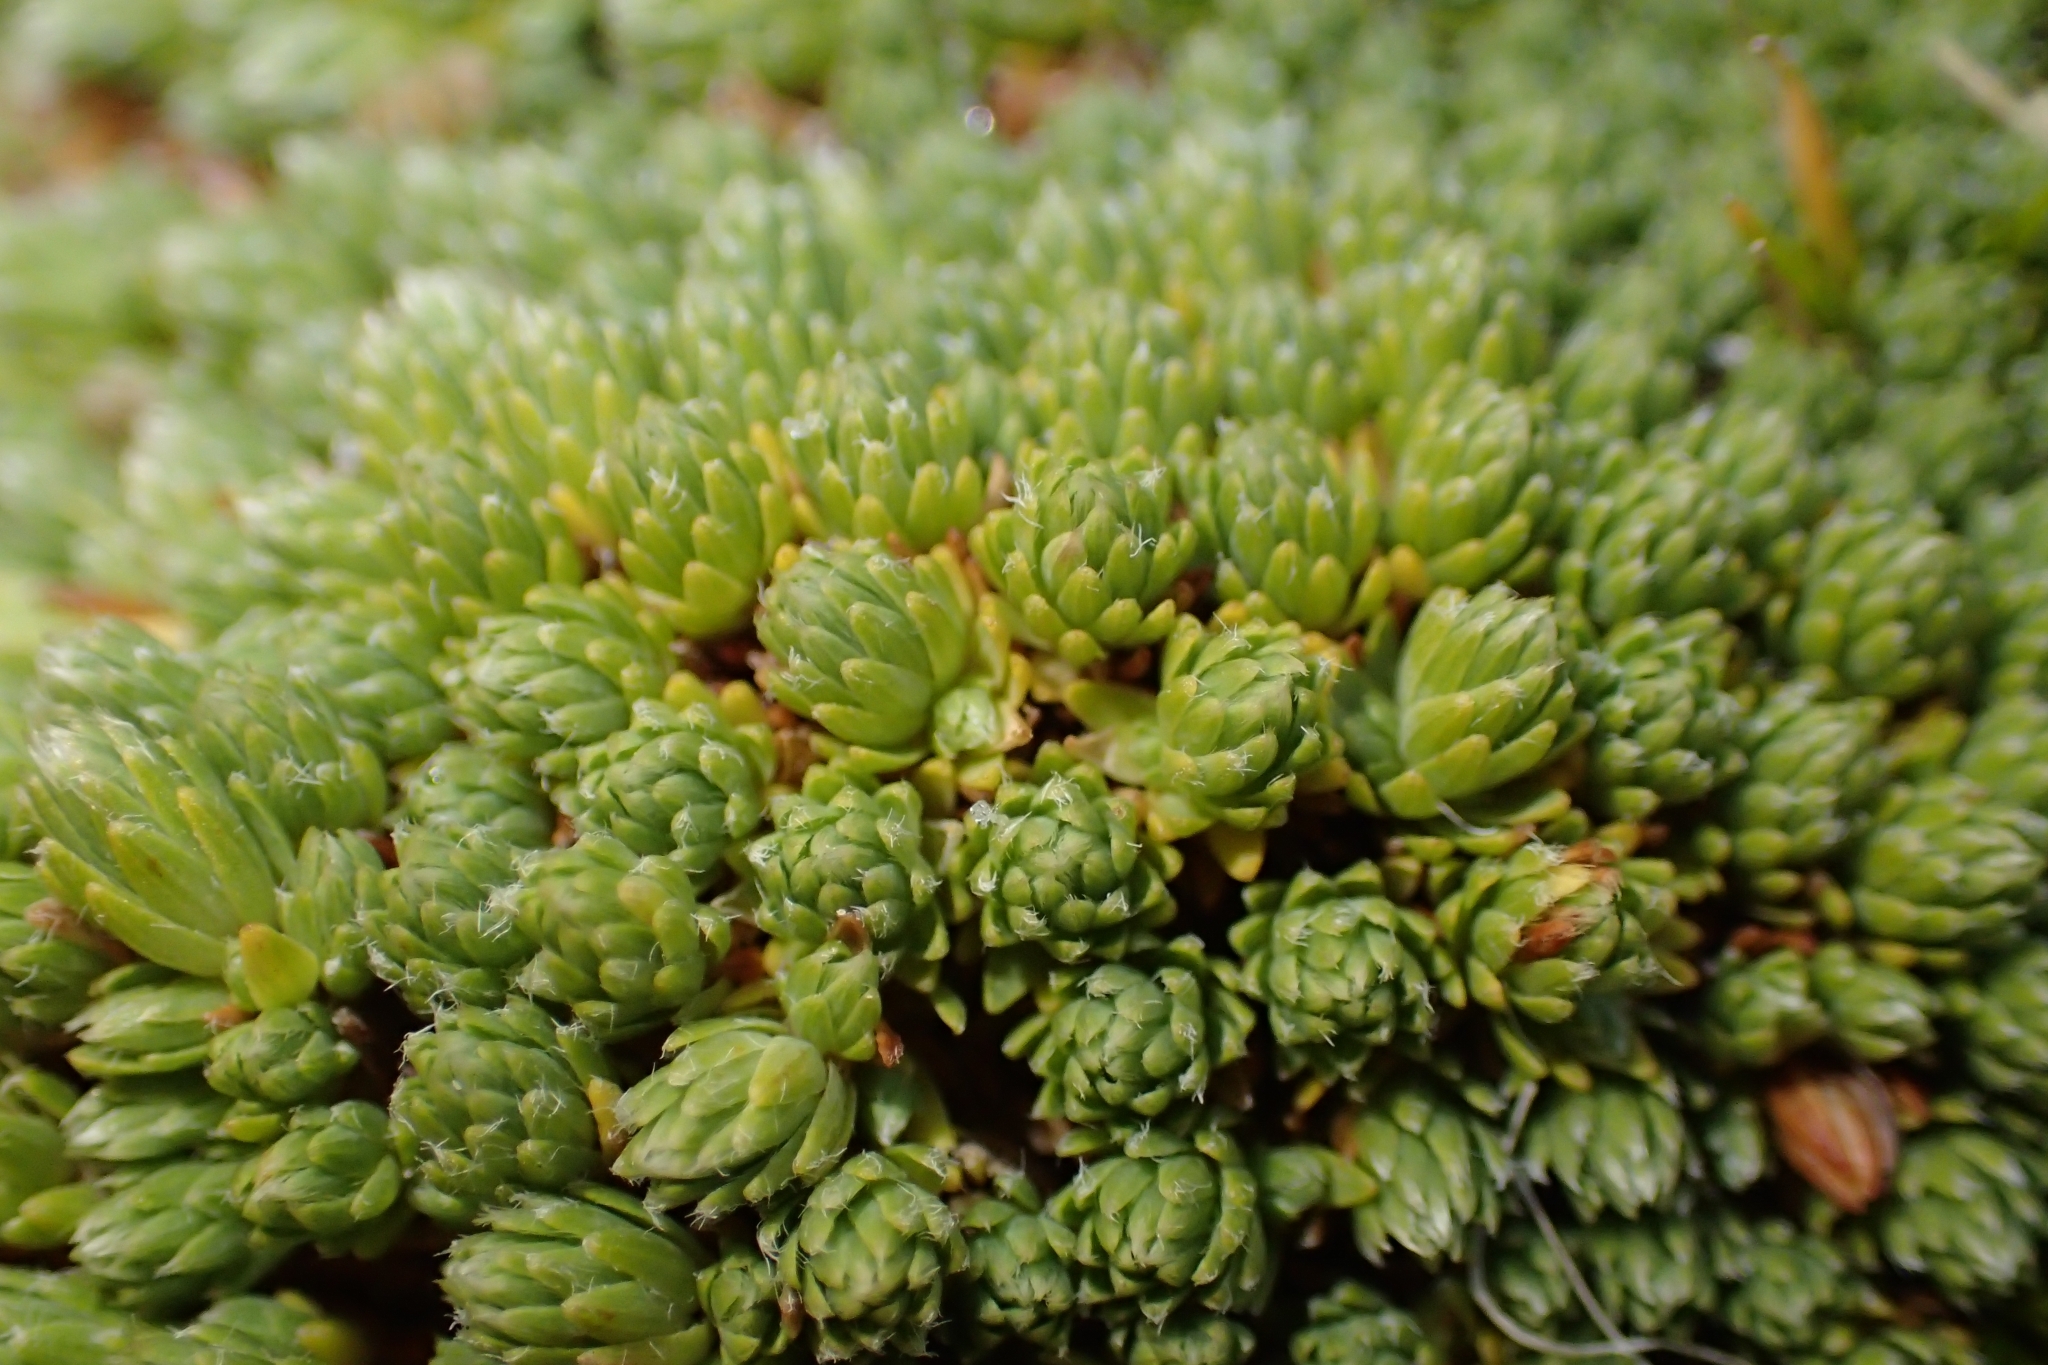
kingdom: Plantae
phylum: Tracheophyta
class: Magnoliopsida
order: Malvales
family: Thymelaeaceae
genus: Kelleria
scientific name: Kelleria croizatii
